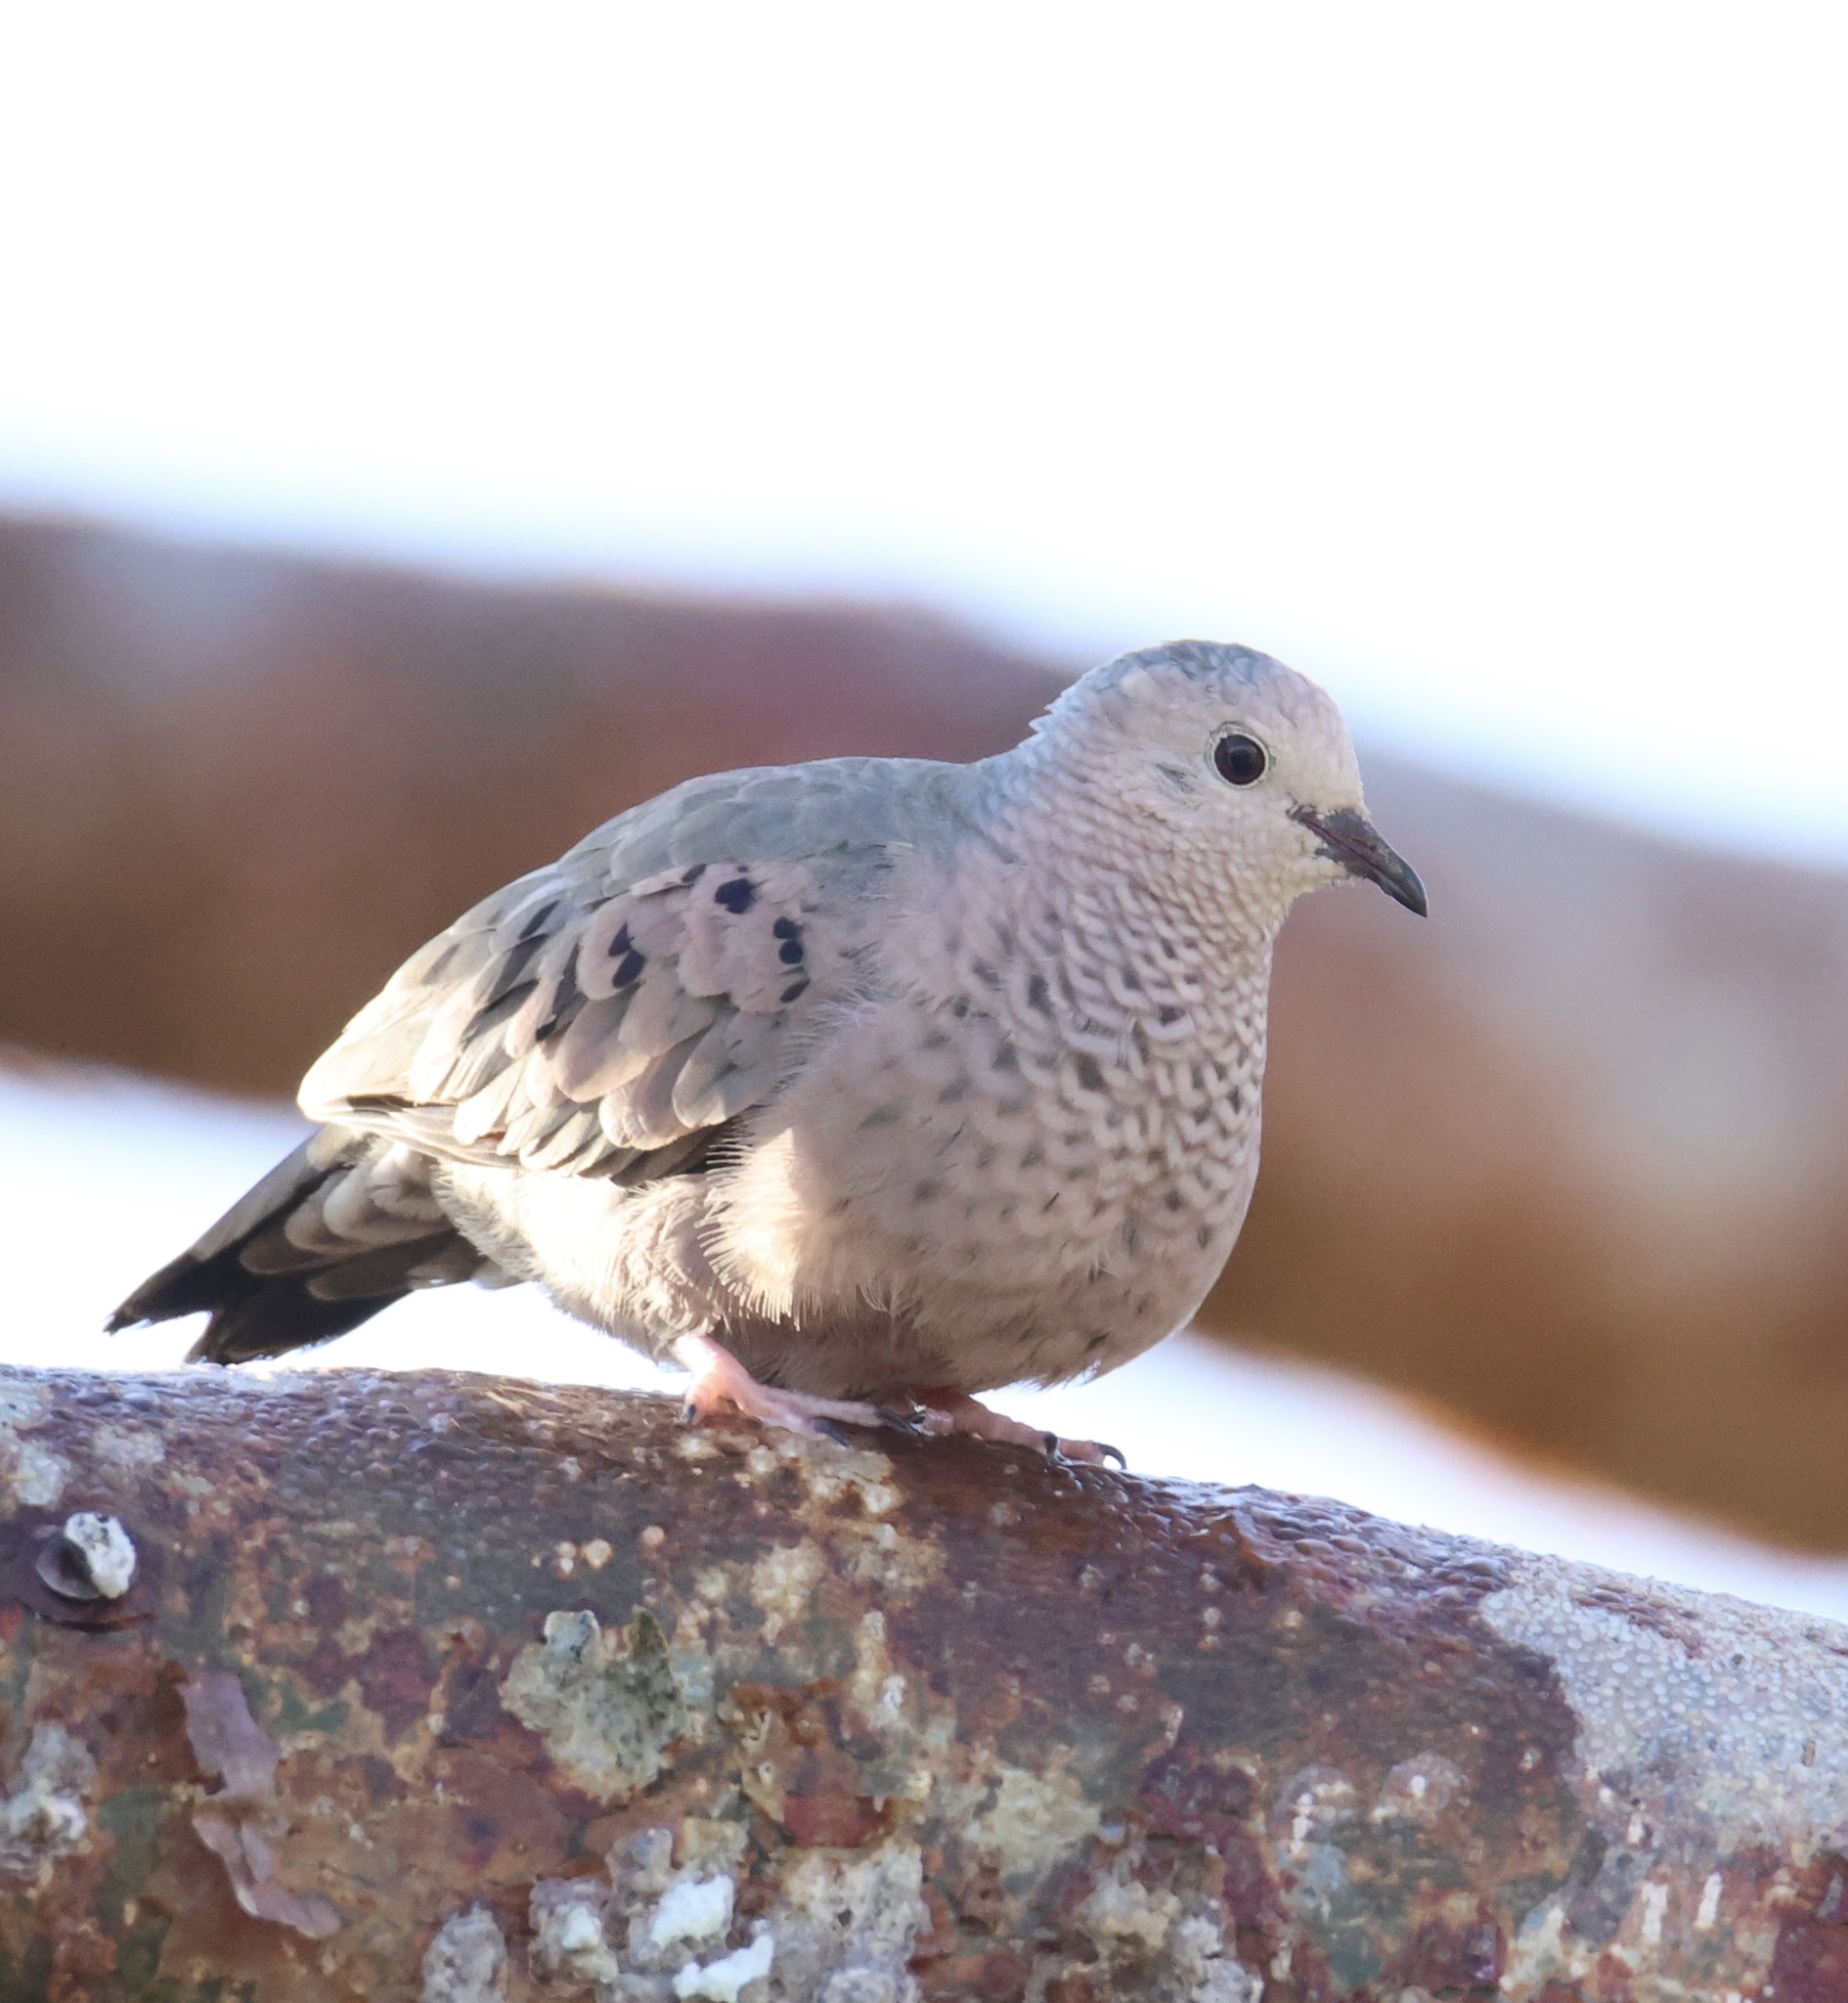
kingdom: Animalia
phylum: Chordata
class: Aves
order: Columbiformes
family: Columbidae
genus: Columbina
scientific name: Columbina passerina
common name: Common ground-dove
